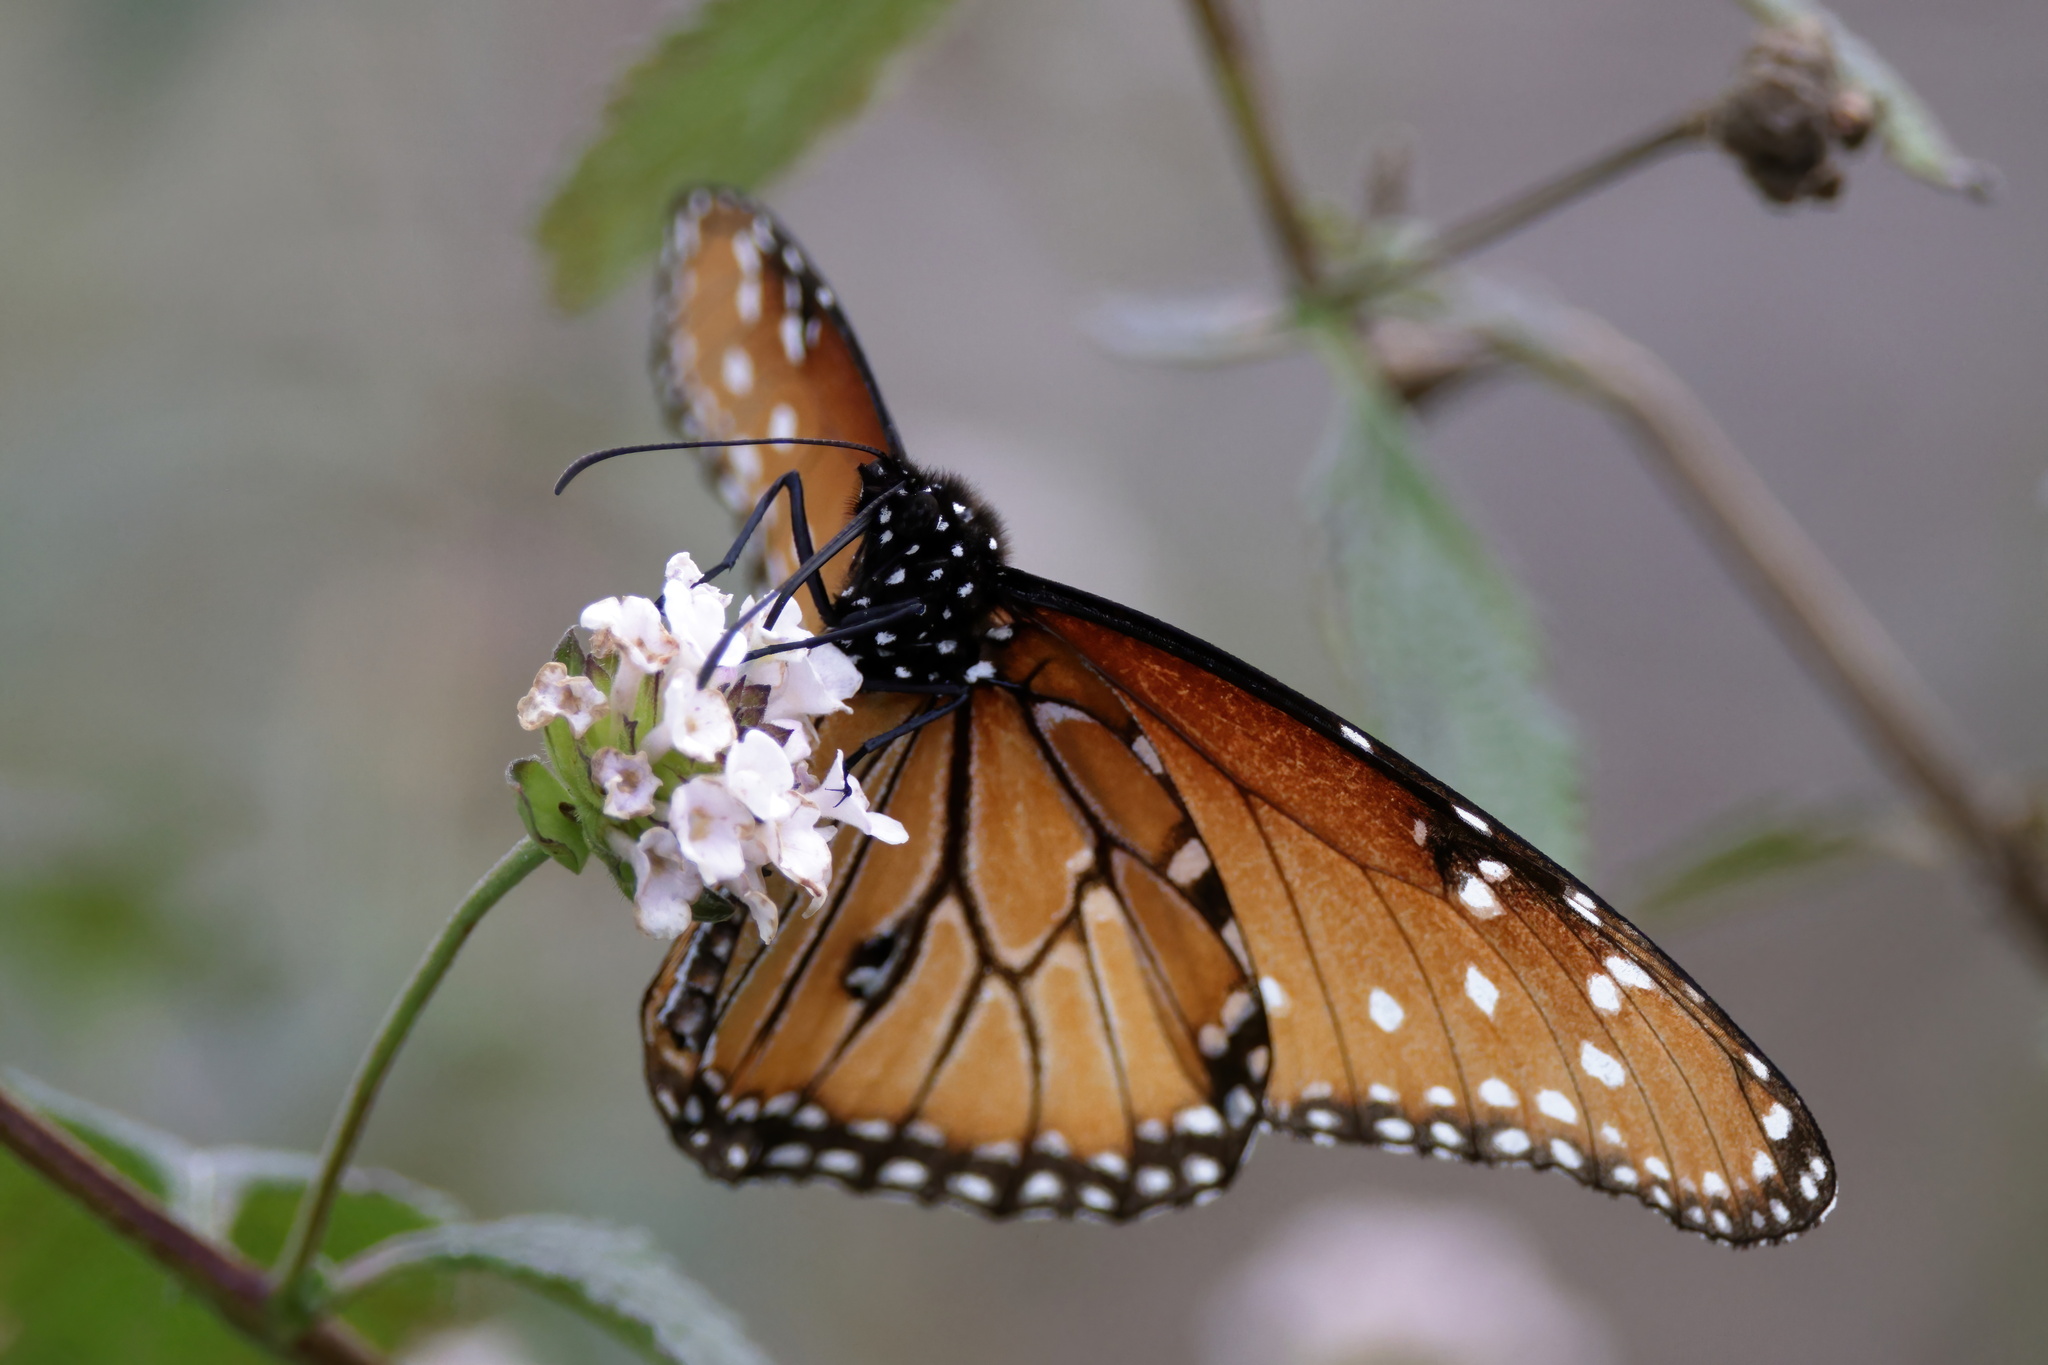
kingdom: Animalia
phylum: Arthropoda
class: Insecta
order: Lepidoptera
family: Nymphalidae
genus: Danaus
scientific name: Danaus gilippus
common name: Queen
